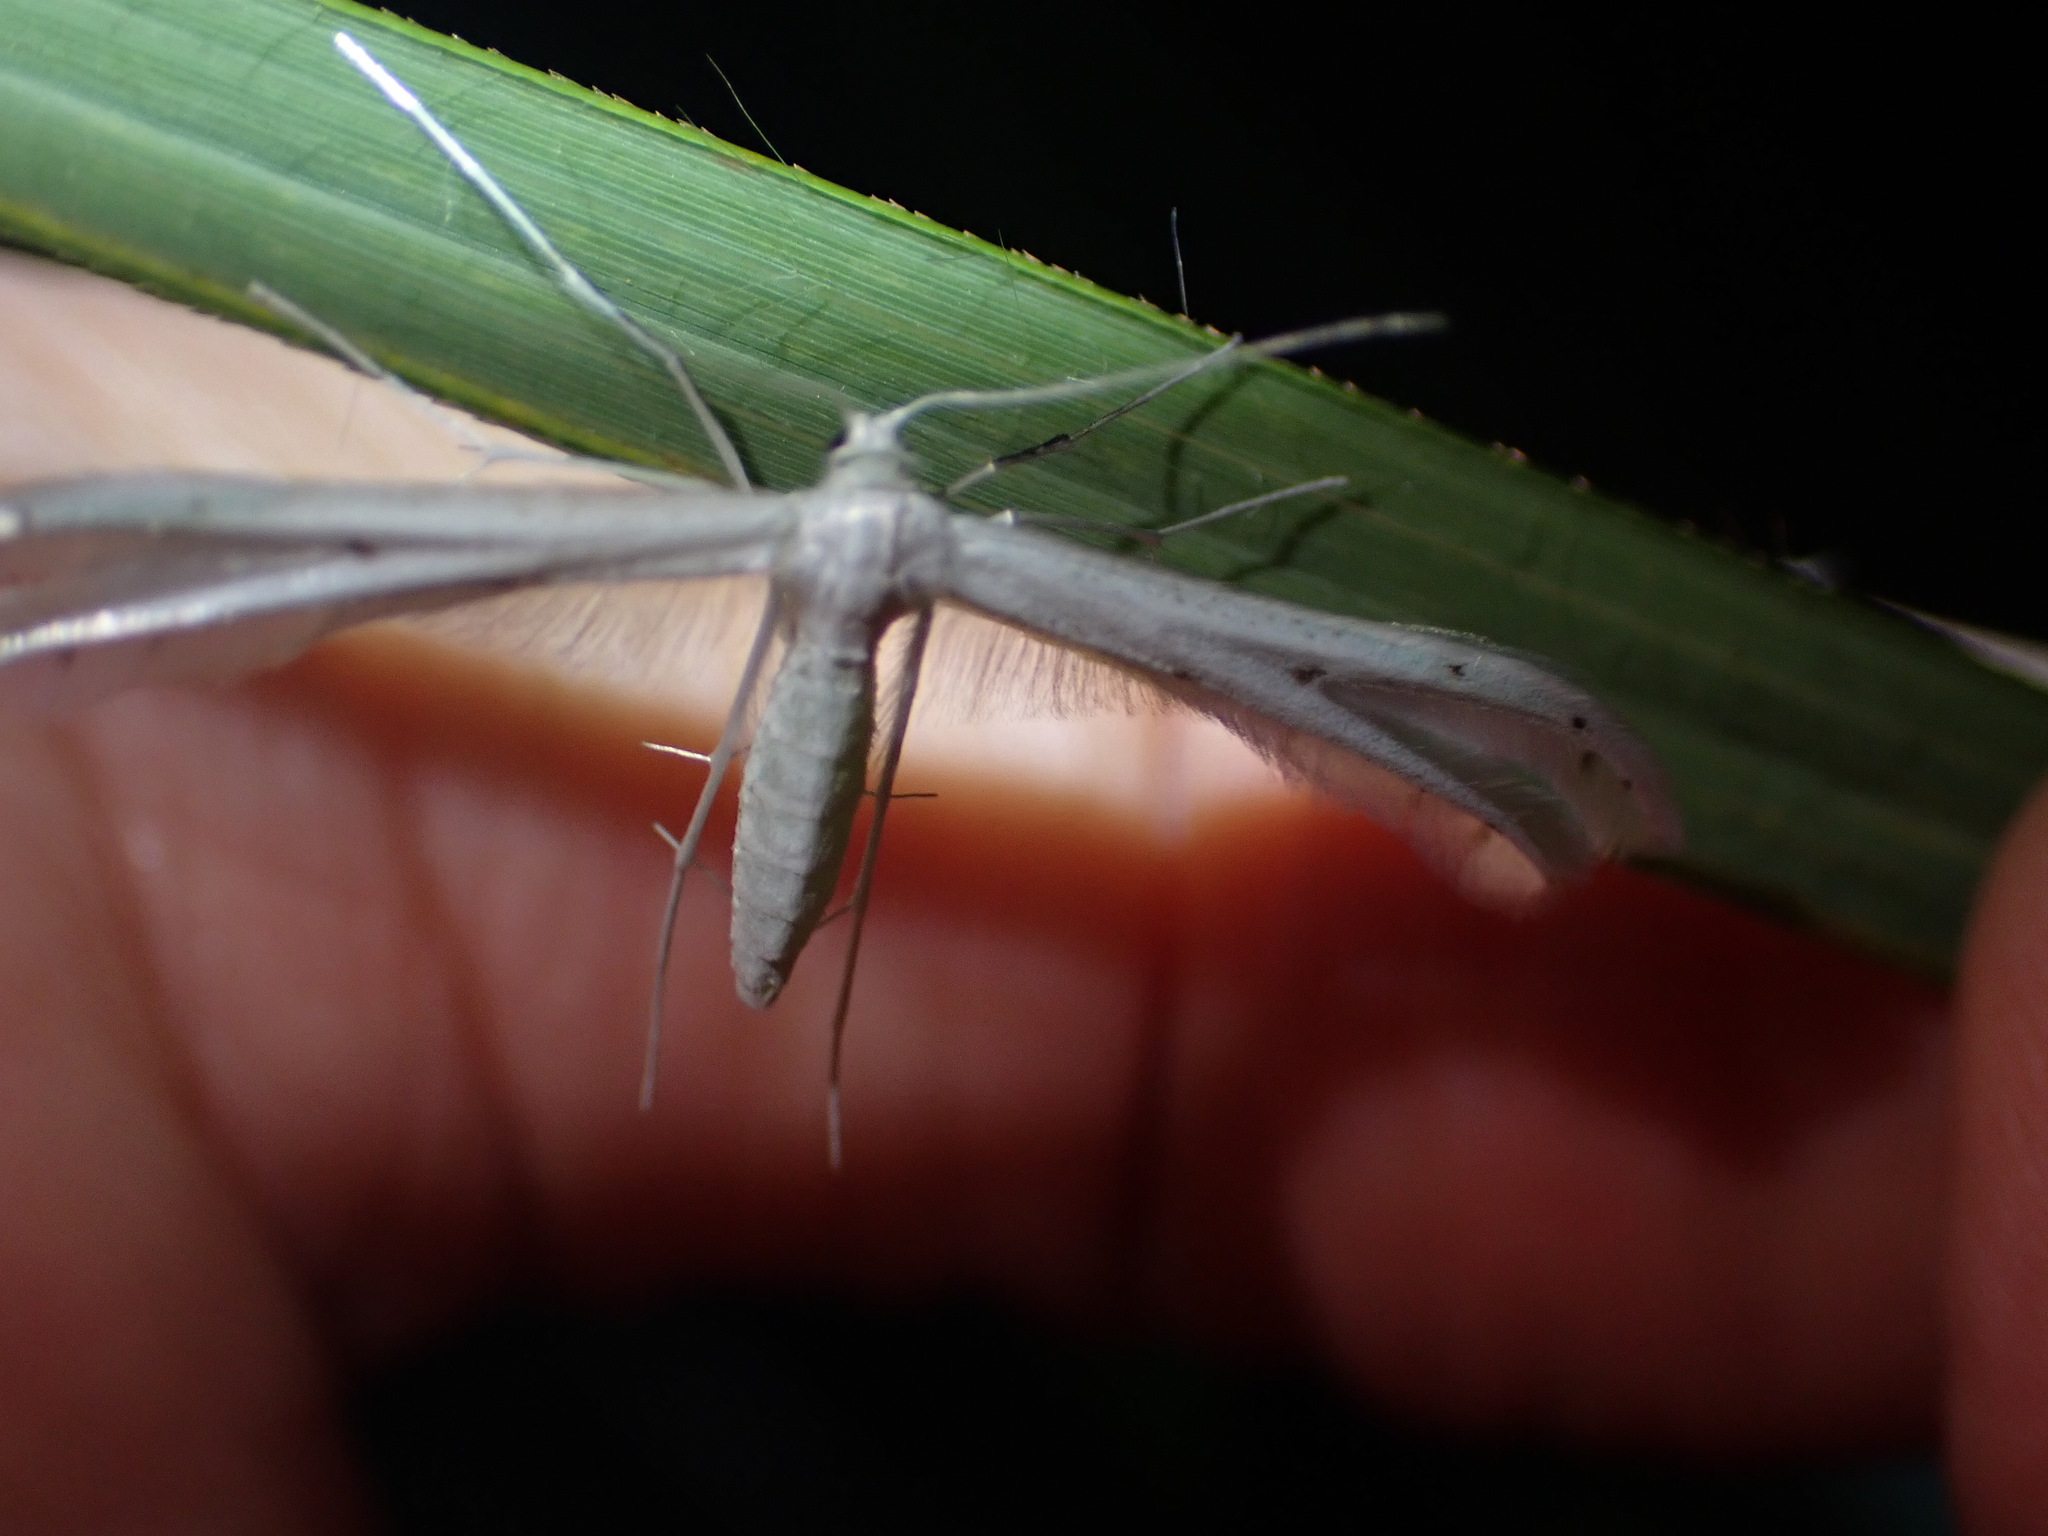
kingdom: Animalia
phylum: Arthropoda
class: Insecta
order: Lepidoptera
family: Pterophoridae
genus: Pterophorus
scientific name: Pterophorus monospilalis
